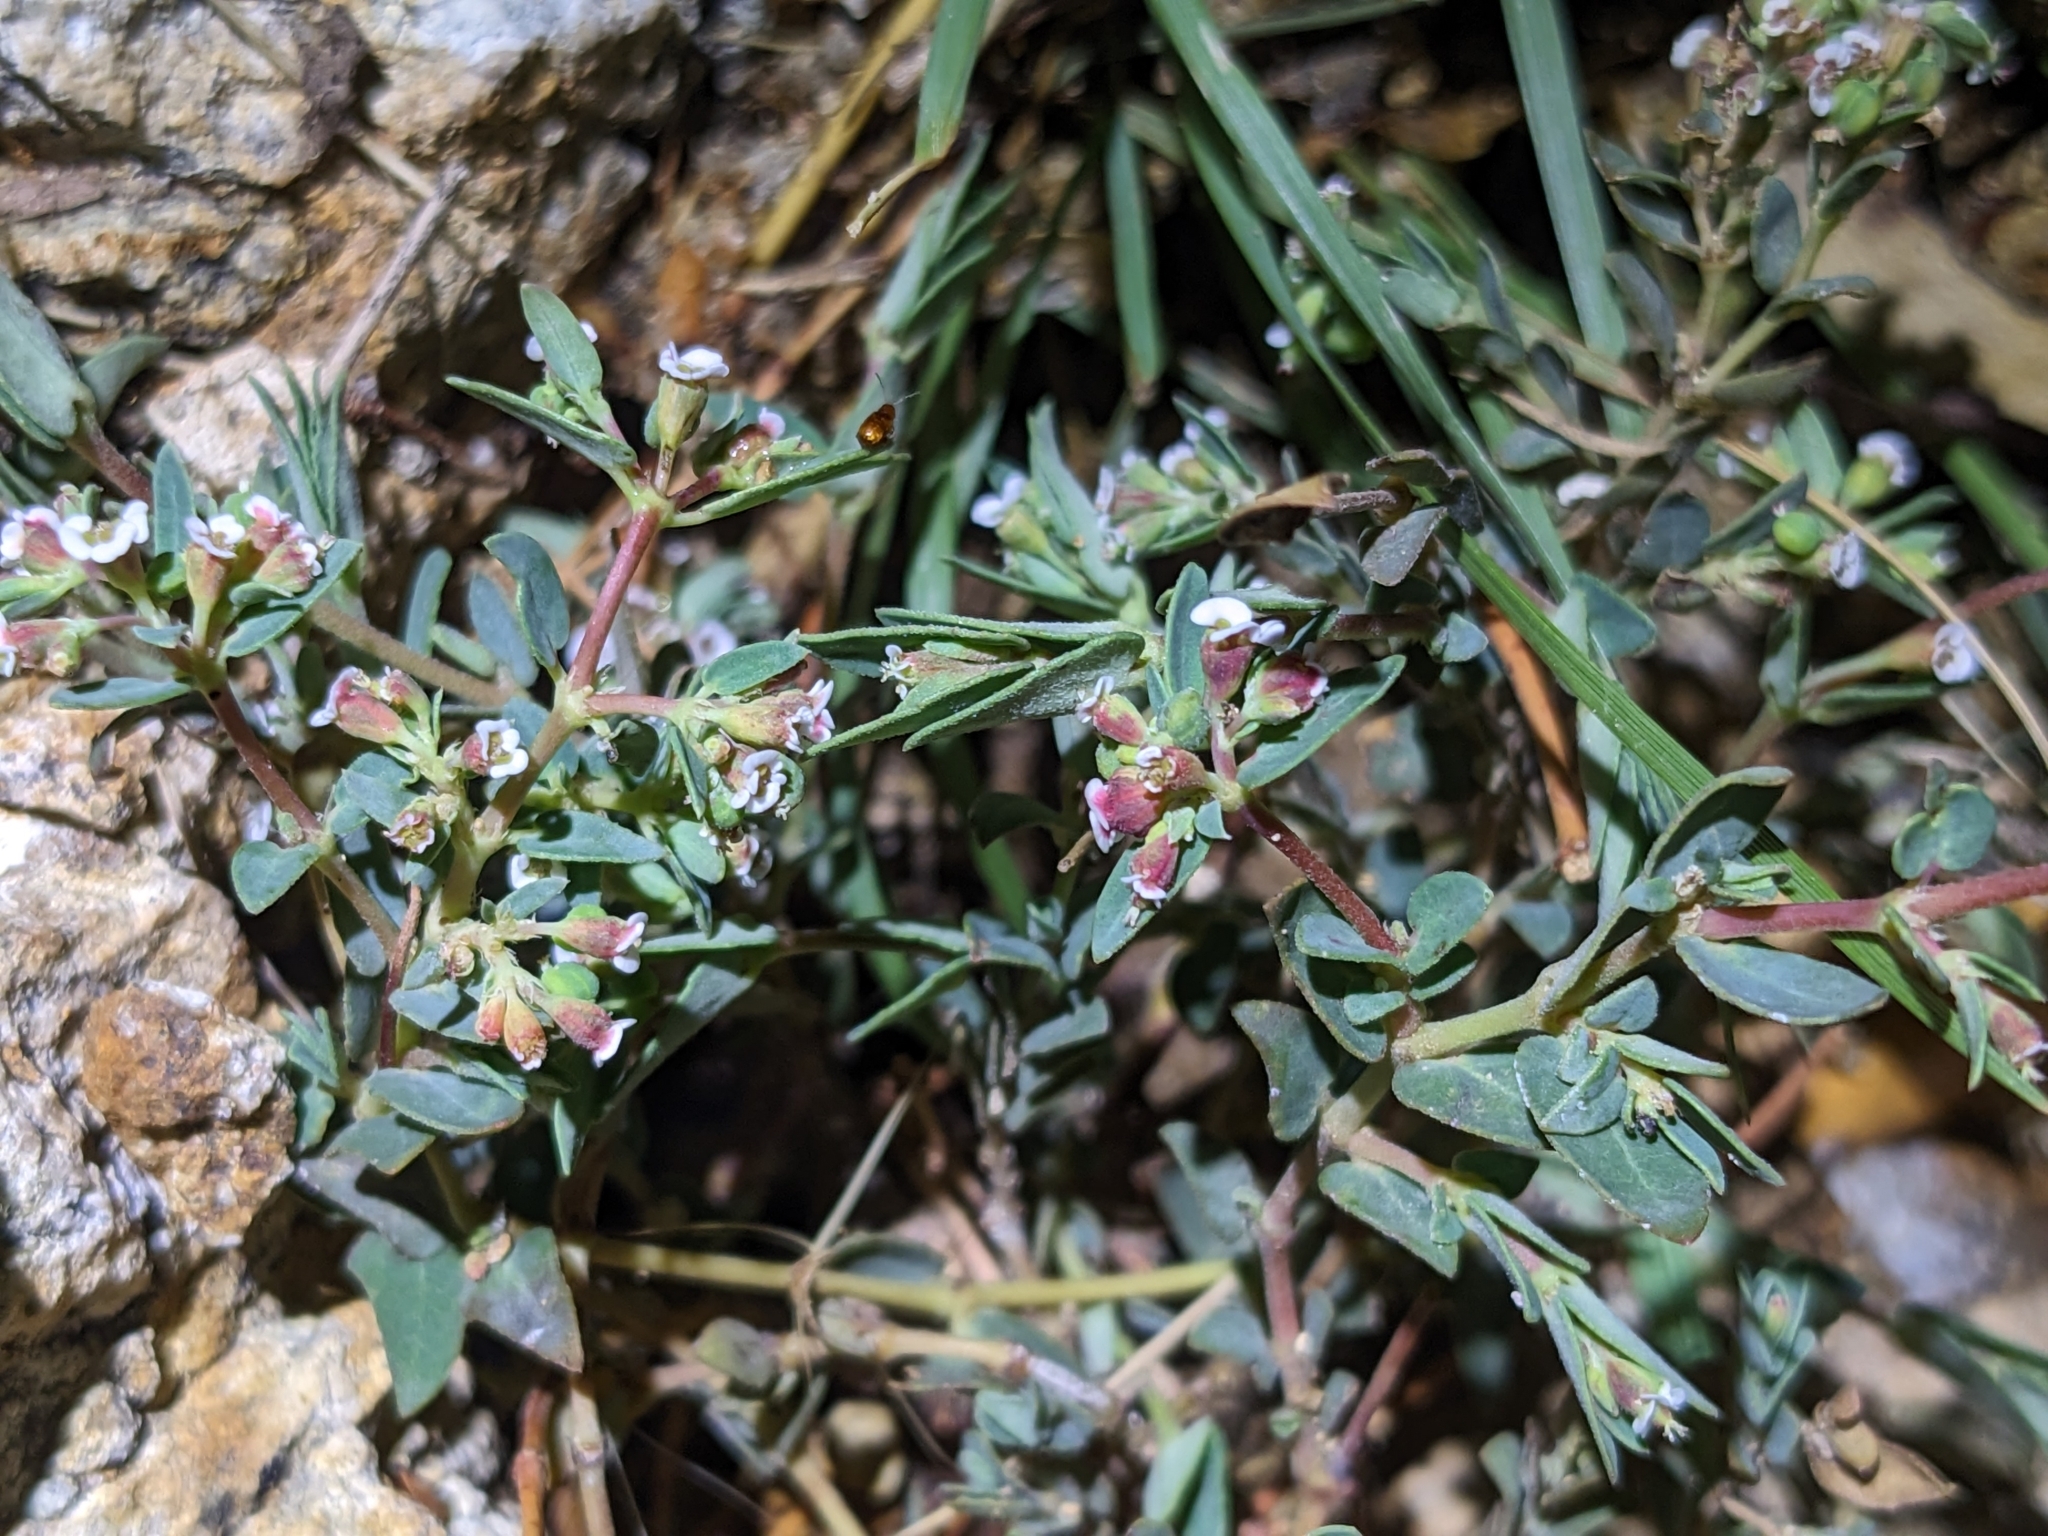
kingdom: Plantae
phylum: Tracheophyta
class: Magnoliopsida
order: Malpighiales
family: Euphorbiaceae
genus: Euphorbia
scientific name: Euphorbia capitellata
